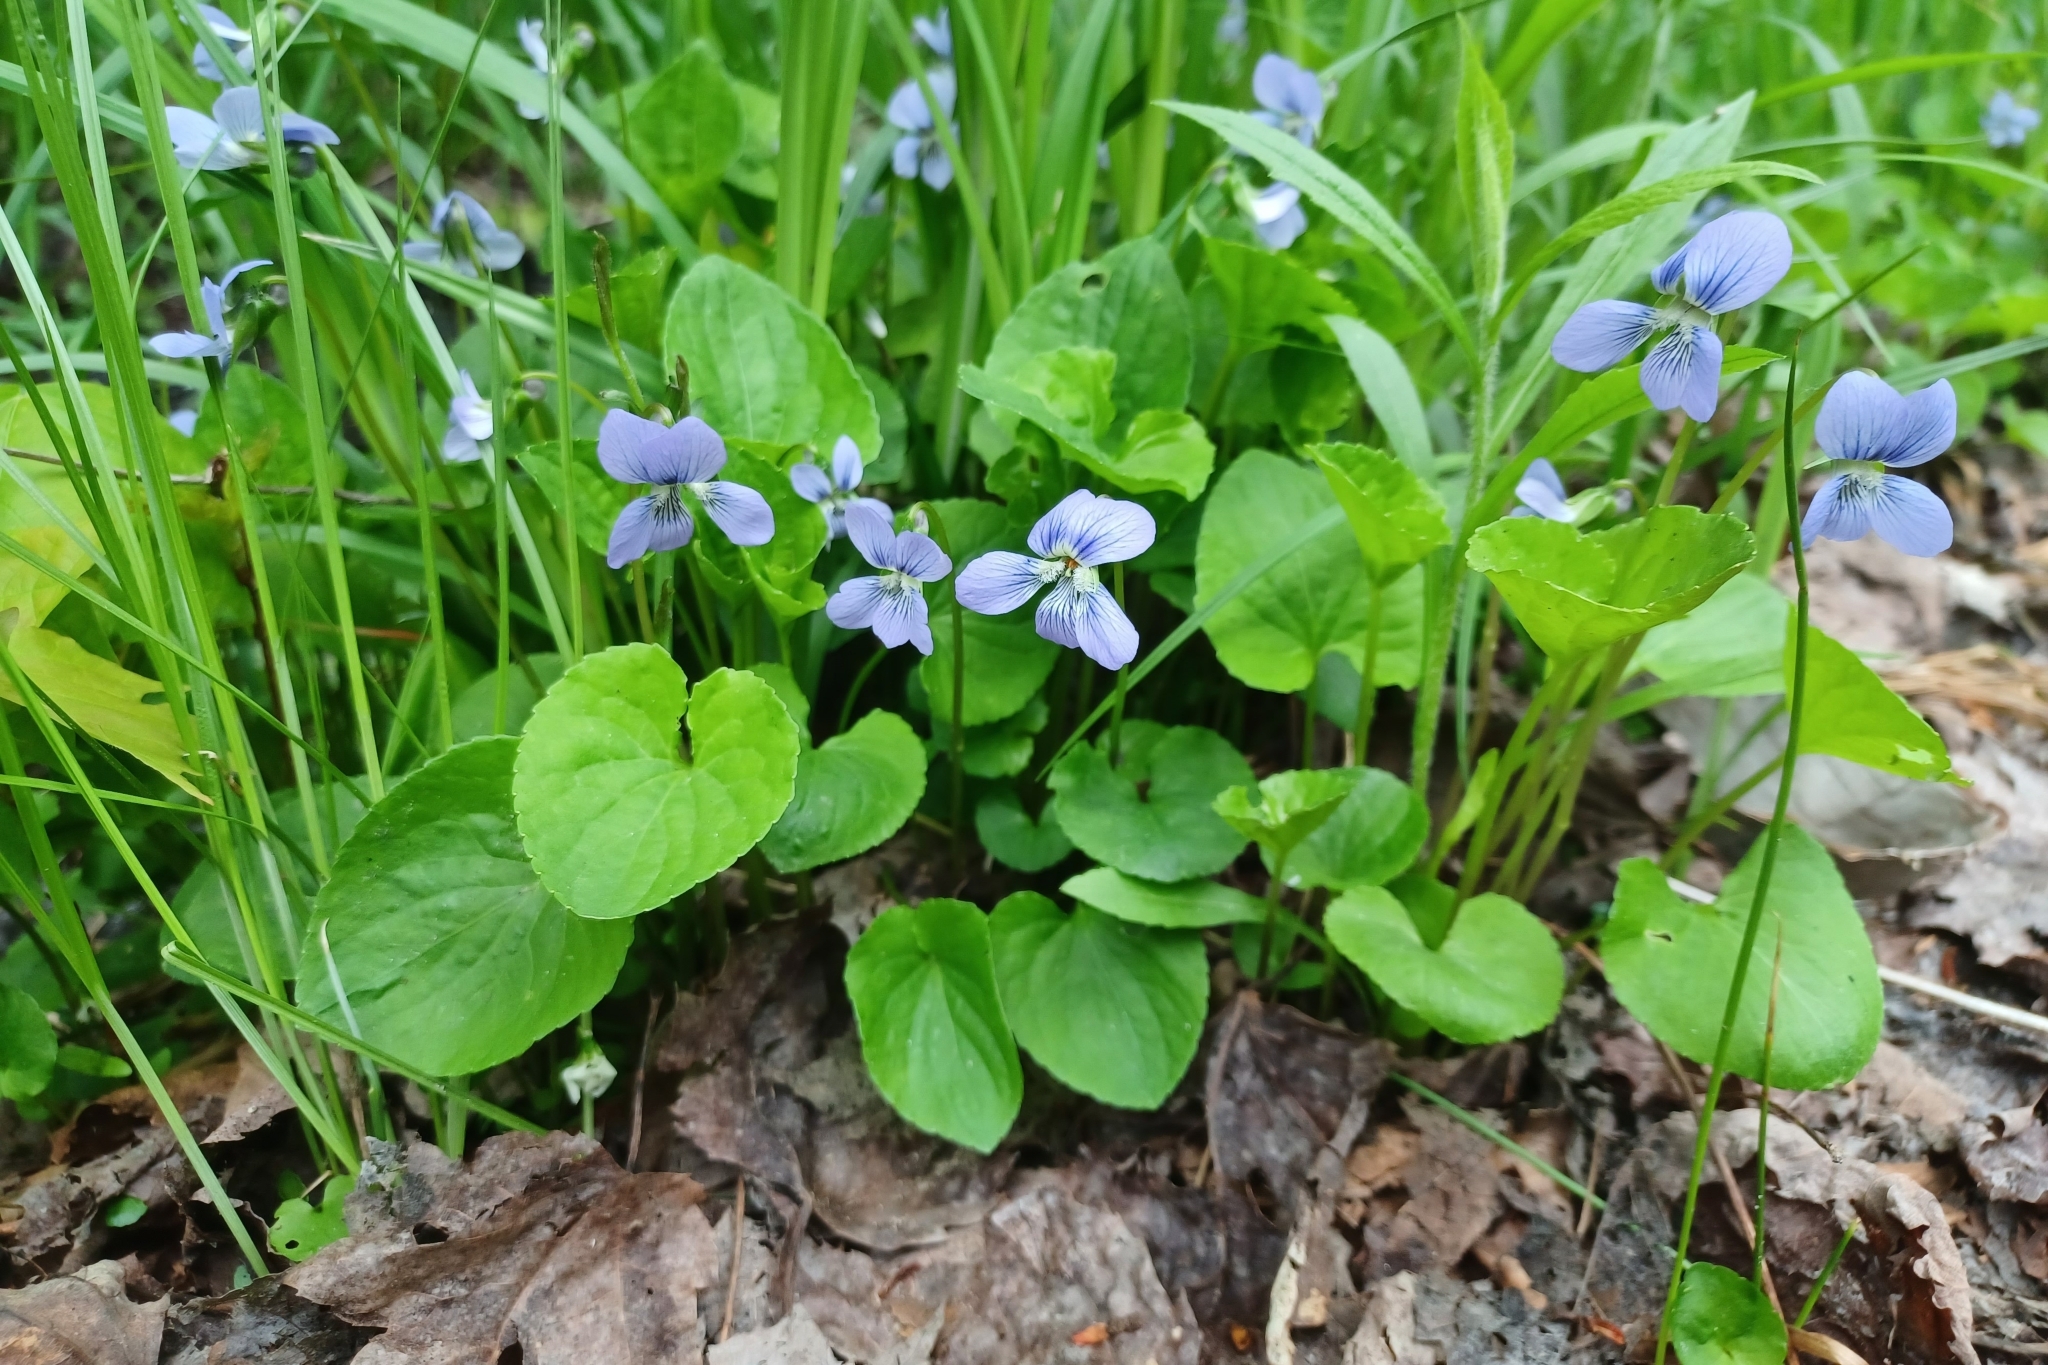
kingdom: Plantae
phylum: Tracheophyta
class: Magnoliopsida
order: Malpighiales
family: Violaceae
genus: Viola
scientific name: Viola cucullata
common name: Marsh blue violet
